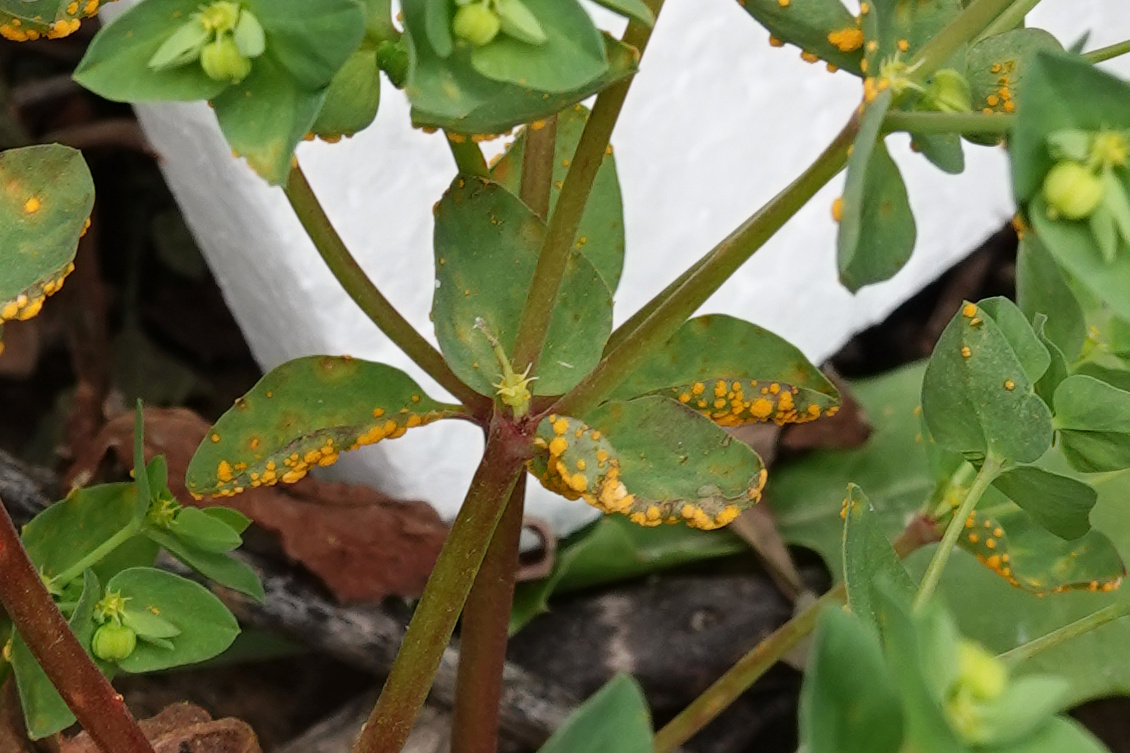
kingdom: Fungi
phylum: Basidiomycota
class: Pucciniomycetes
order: Pucciniales
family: Melampsoraceae
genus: Melampsora
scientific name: Melampsora euphorbiae
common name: Spurge rust
